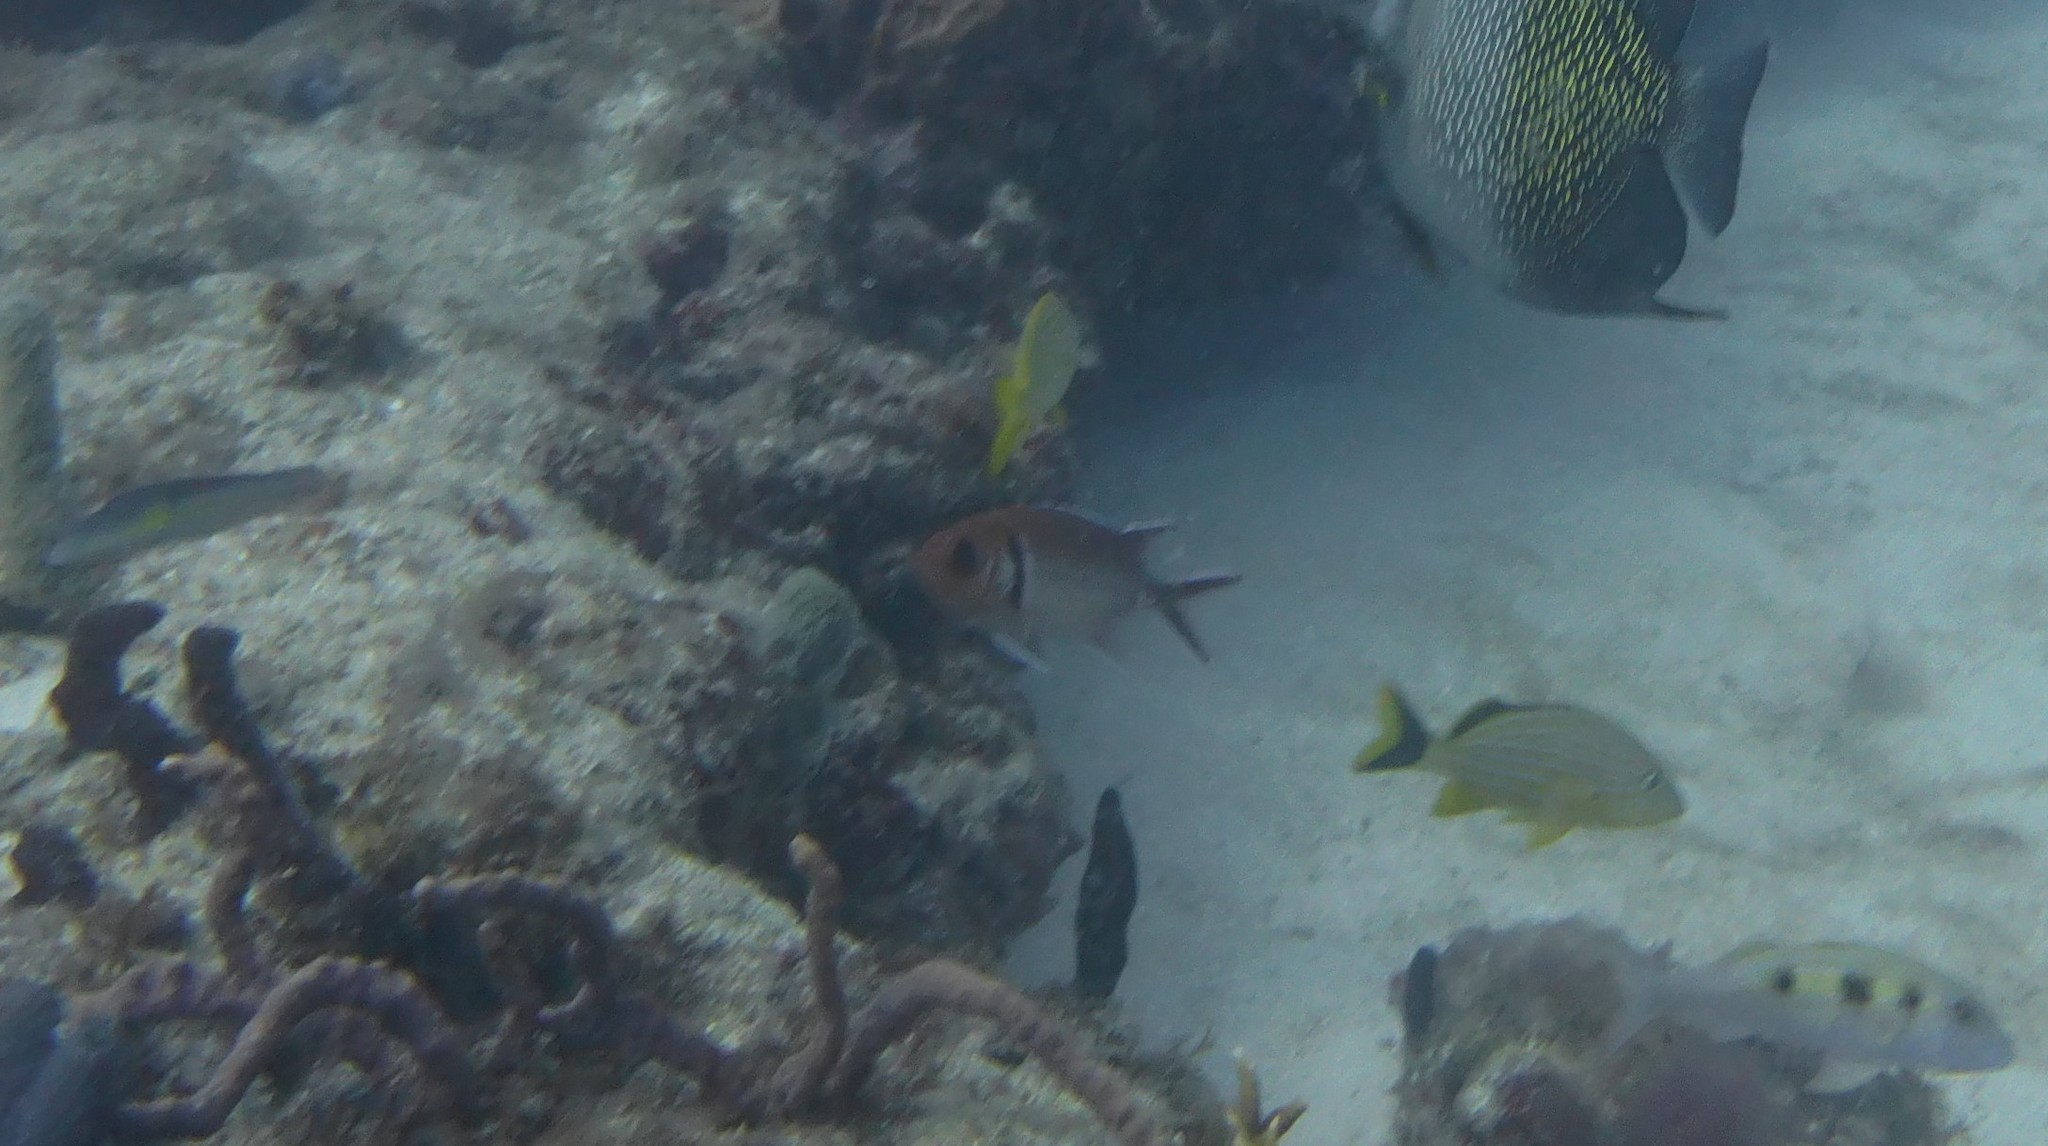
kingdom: Animalia
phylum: Chordata
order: Beryciformes
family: Holocentridae
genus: Myripristis
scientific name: Myripristis jacobus
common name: Blackbar soldierfish
